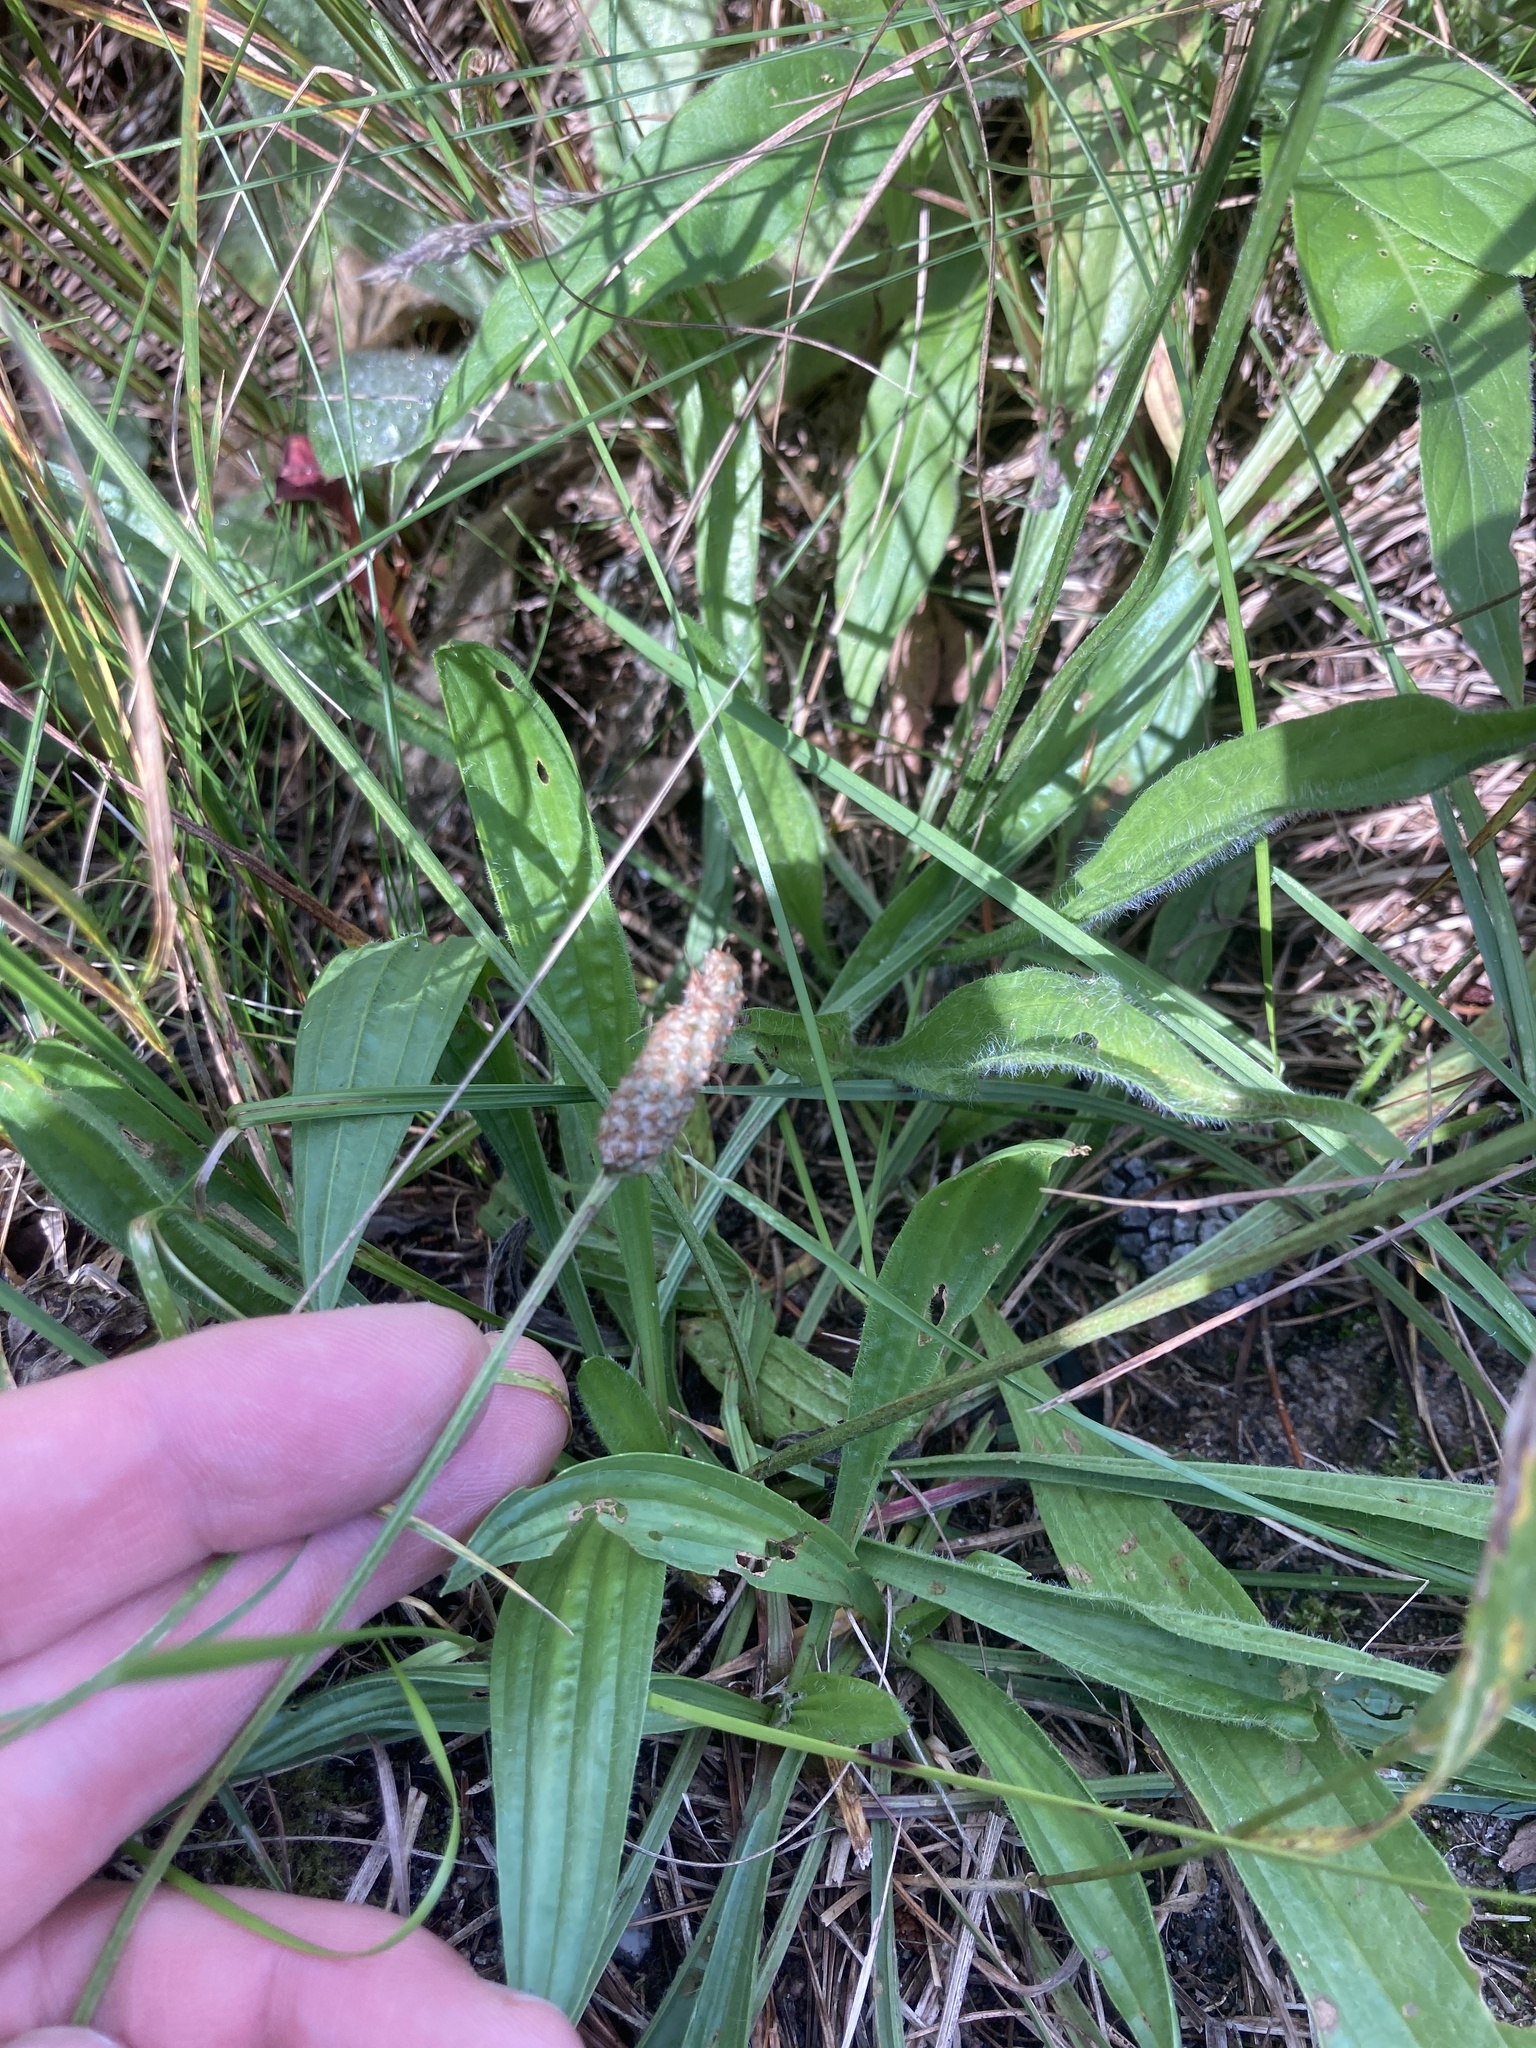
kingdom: Plantae
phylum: Tracheophyta
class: Magnoliopsida
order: Lamiales
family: Plantaginaceae
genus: Plantago
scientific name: Plantago lanceolata
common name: Ribwort plantain
